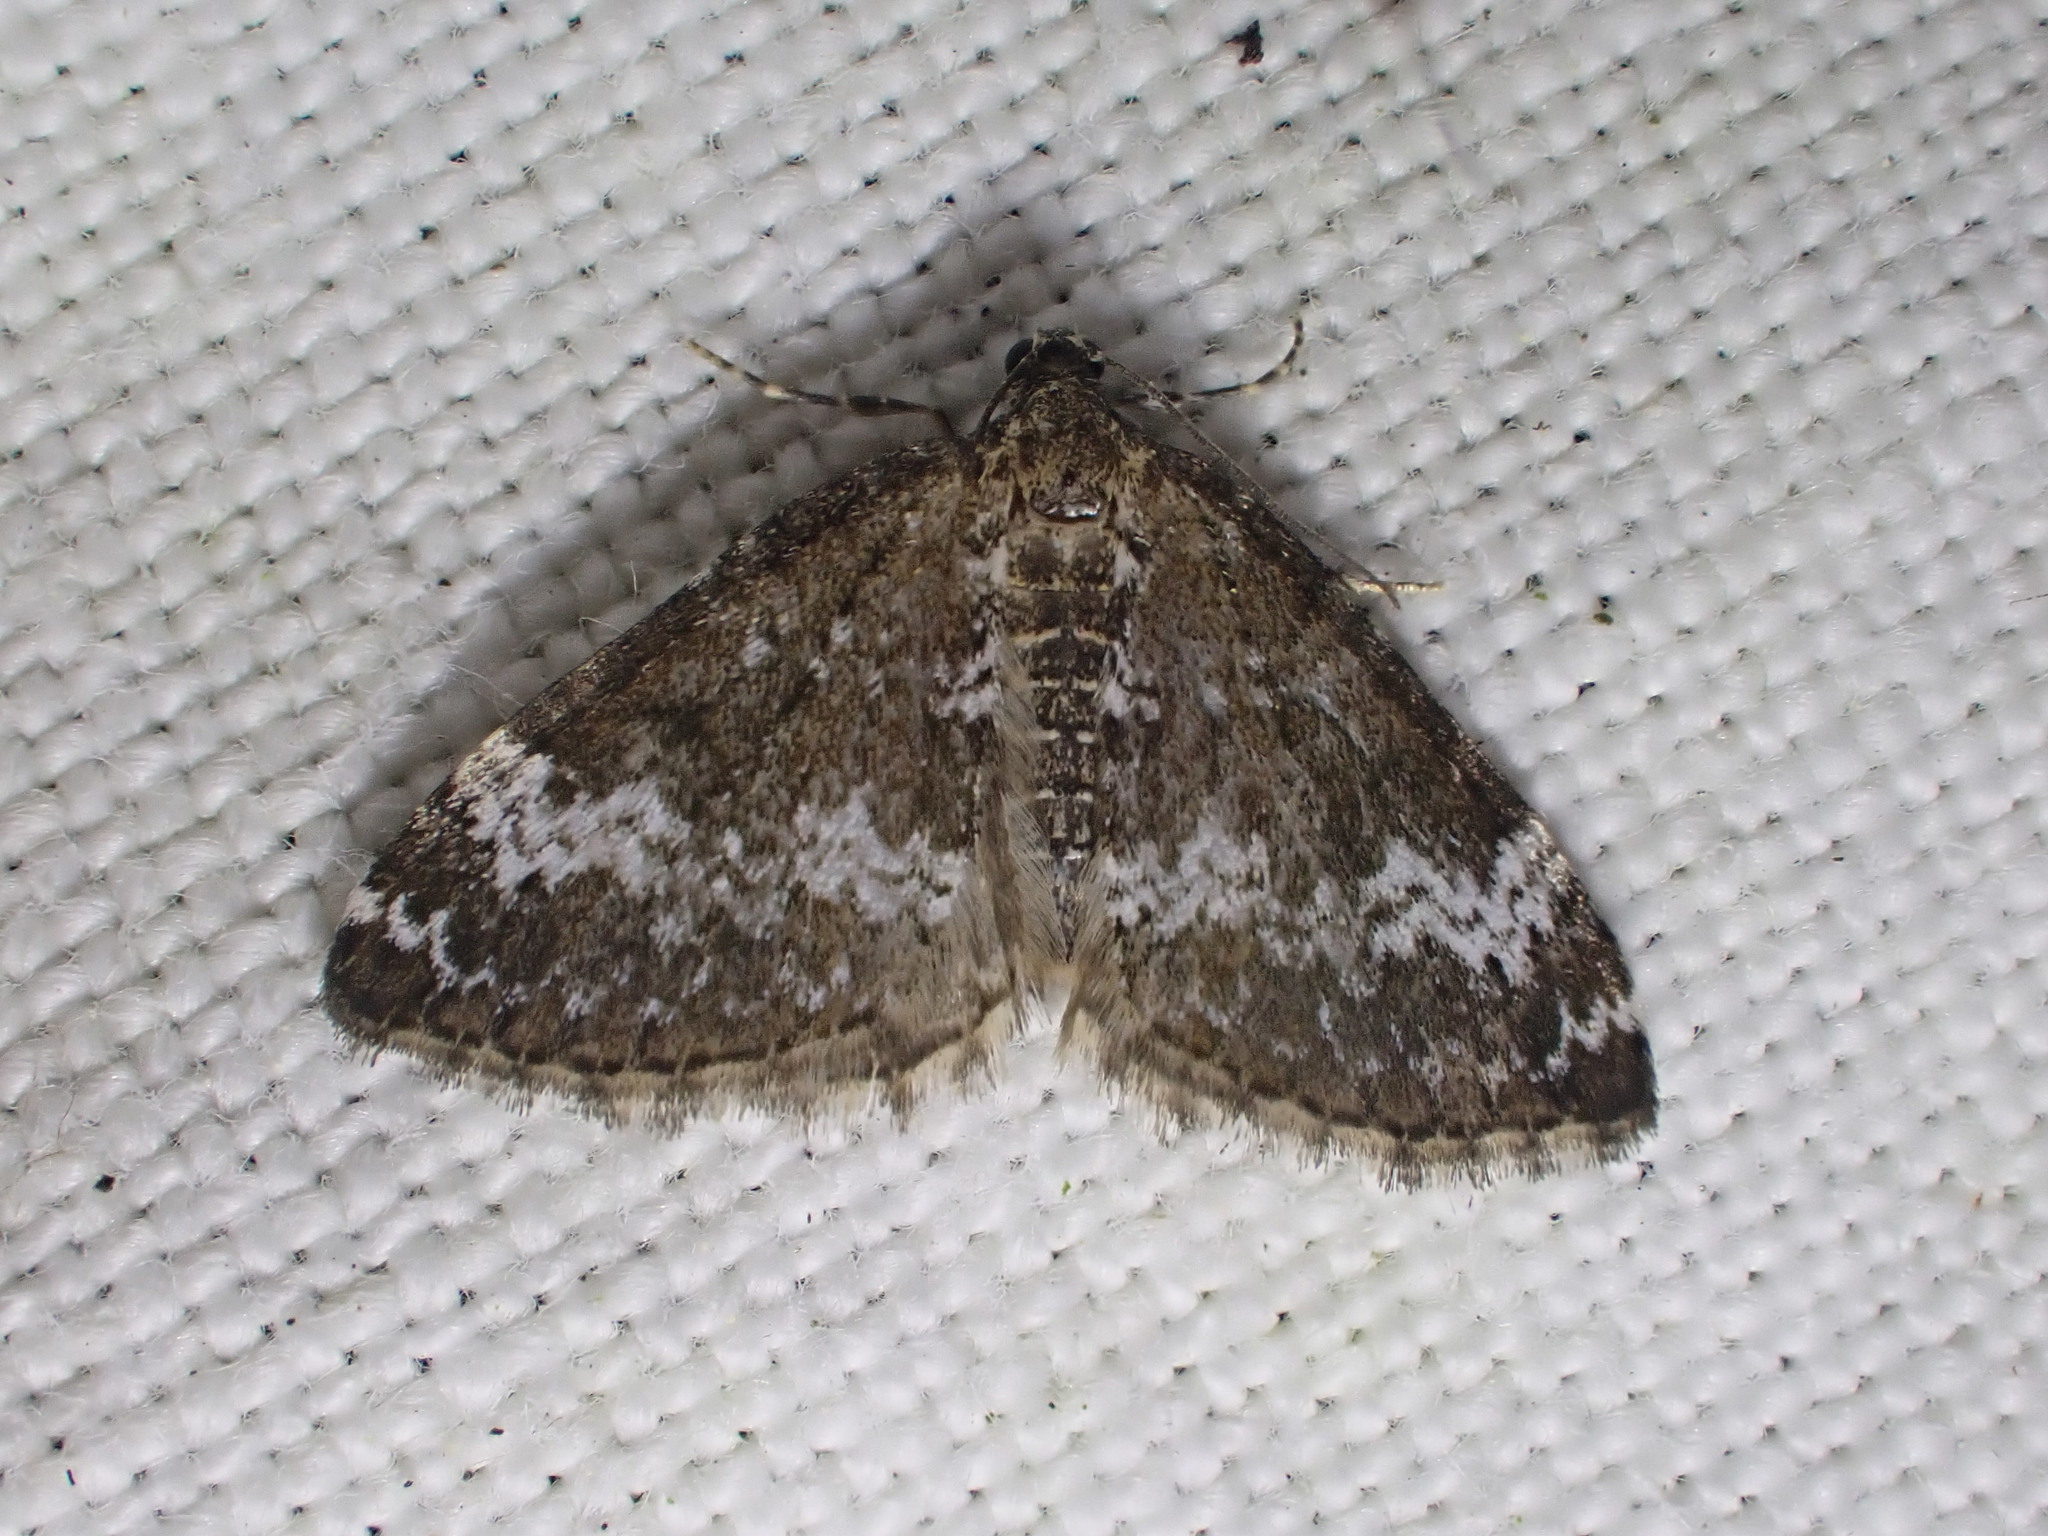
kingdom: Animalia
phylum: Arthropoda
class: Insecta
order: Lepidoptera
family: Geometridae
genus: Perizoma
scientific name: Perizoma alchemillata
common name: Small rivulet
